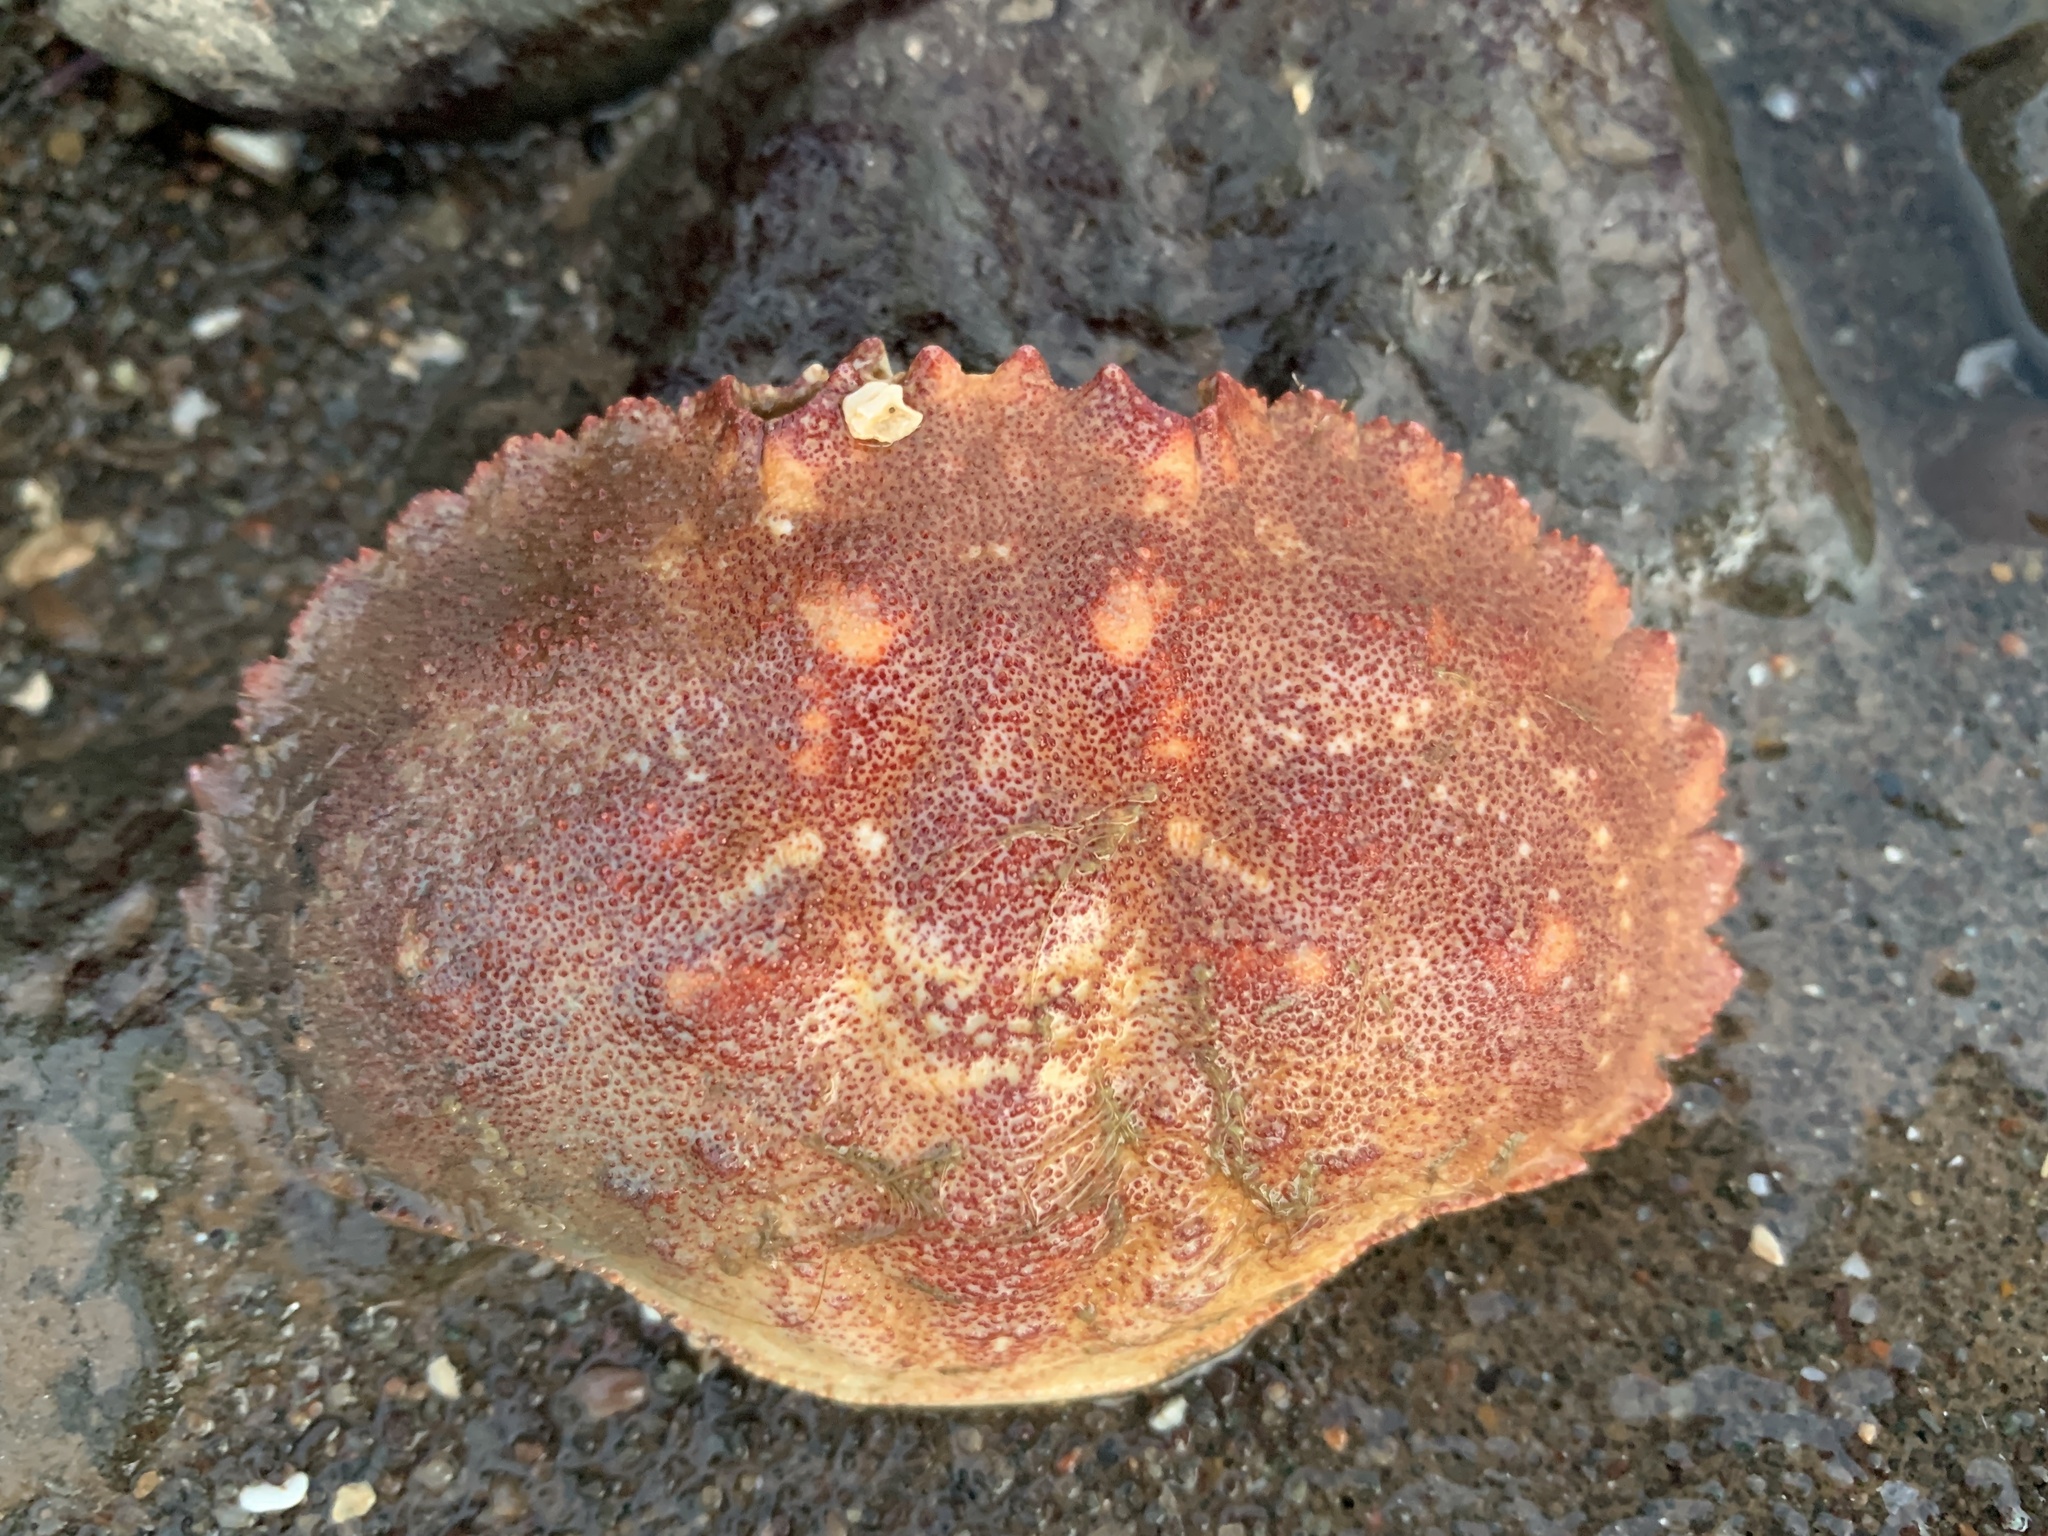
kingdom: Animalia
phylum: Arthropoda
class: Malacostraca
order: Decapoda
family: Cancridae
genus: Cancer
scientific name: Cancer borealis
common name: Jonah crab
